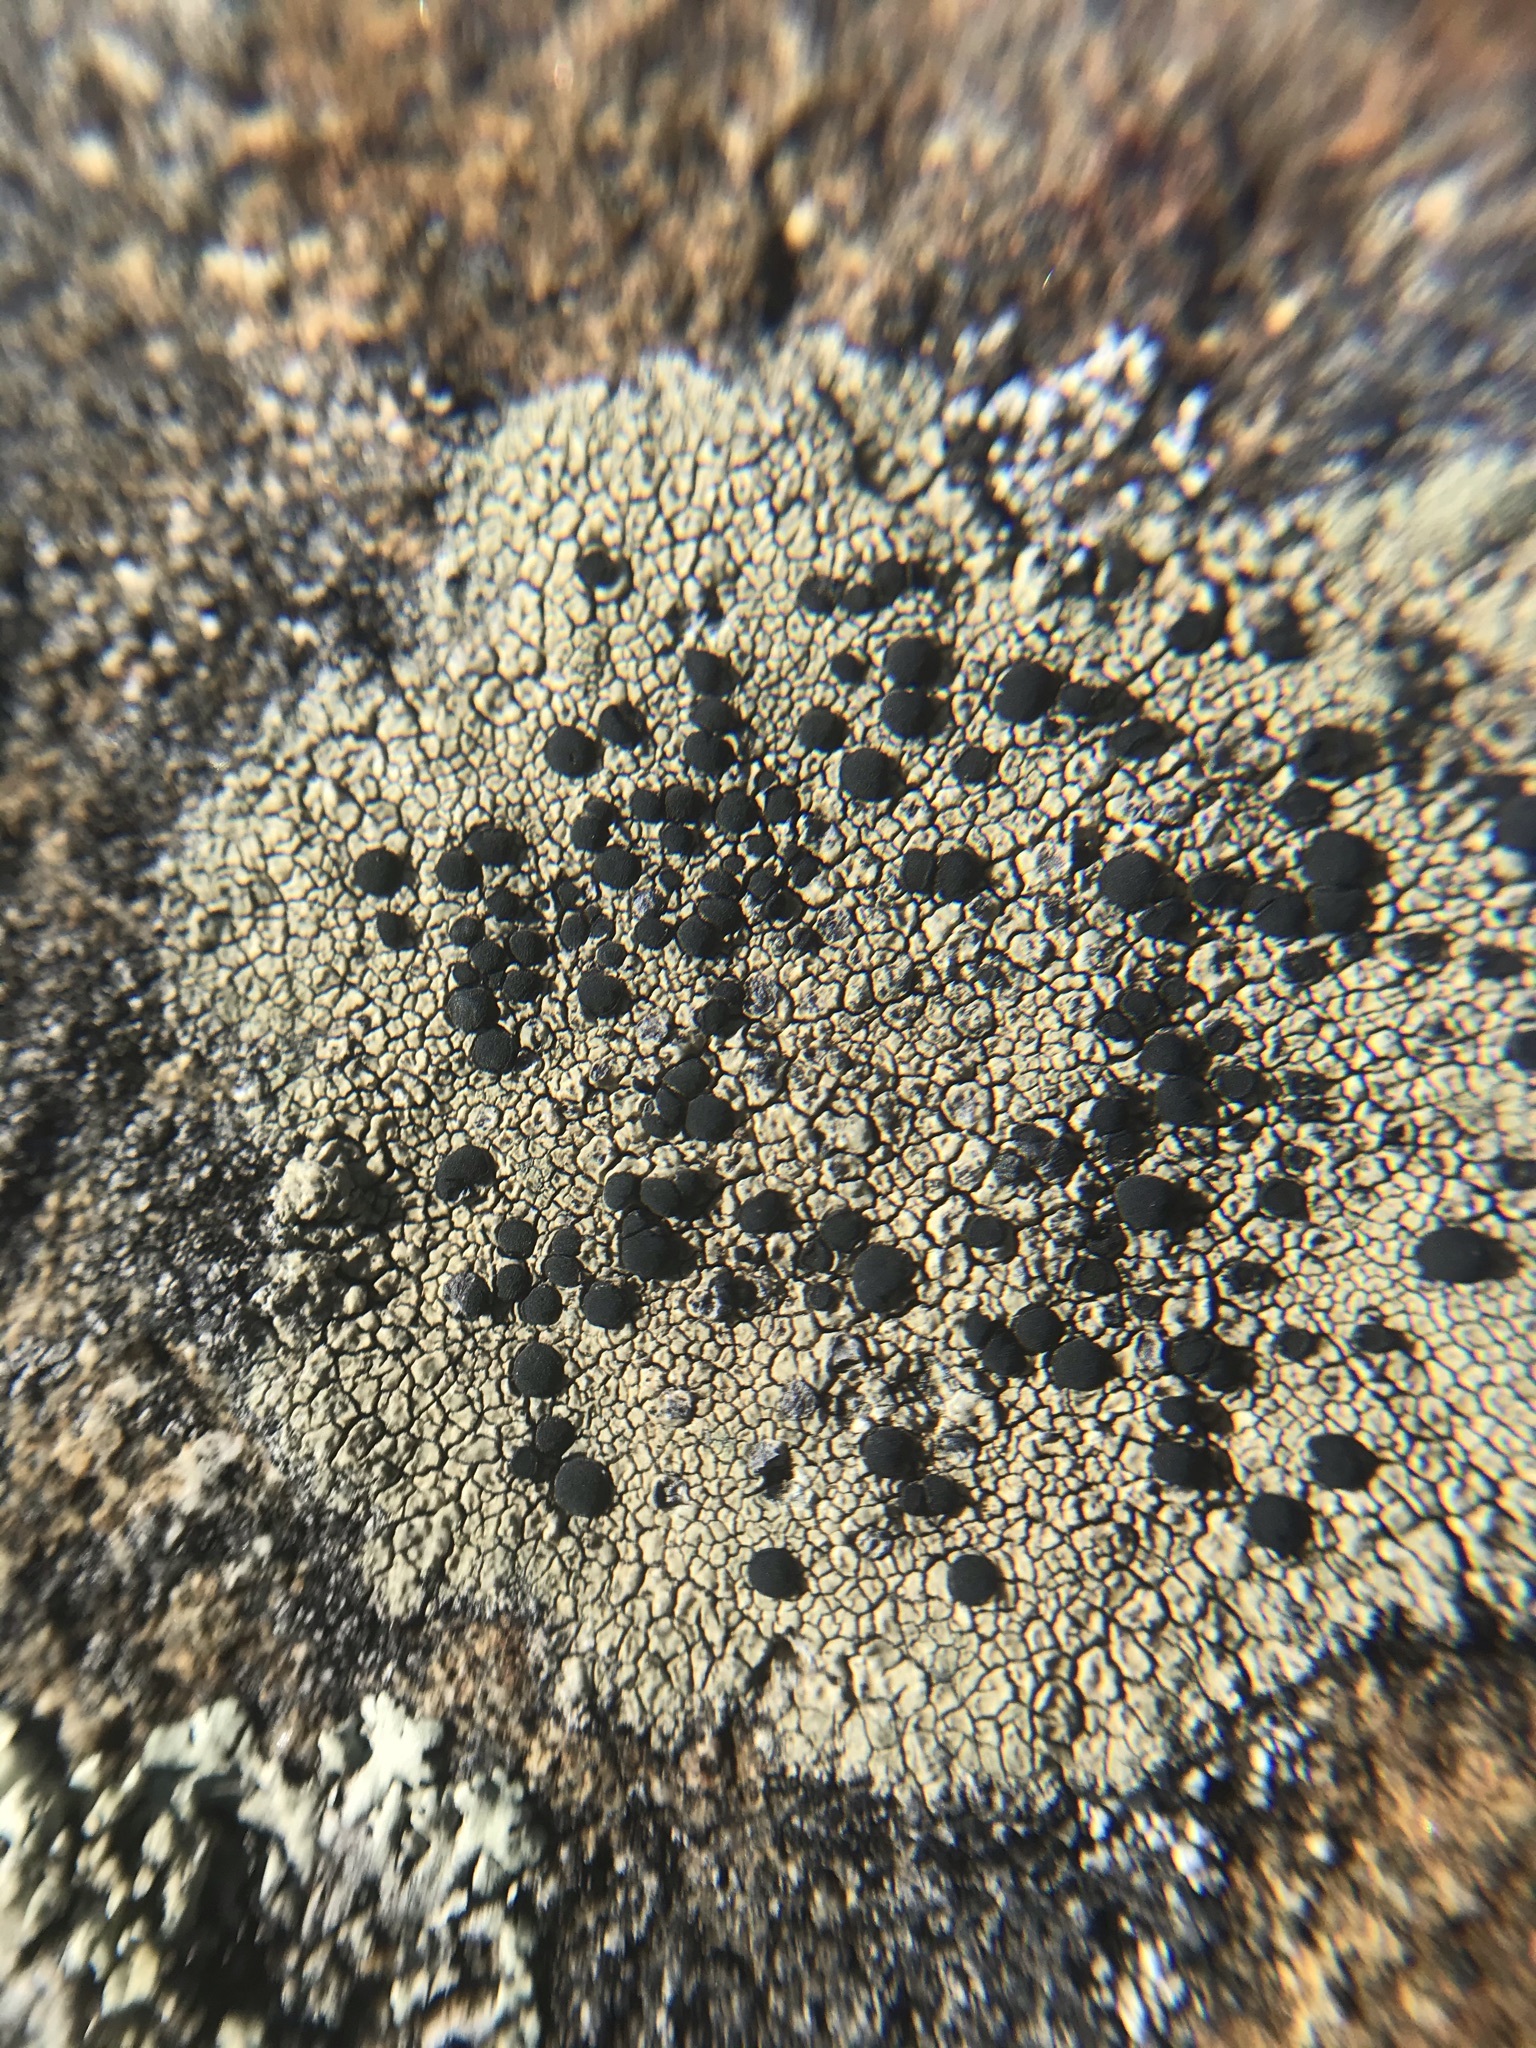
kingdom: Fungi
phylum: Ascomycota
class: Lecanoromycetes
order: Caliciales
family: Caliciaceae
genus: Buellia
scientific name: Buellia halonia
